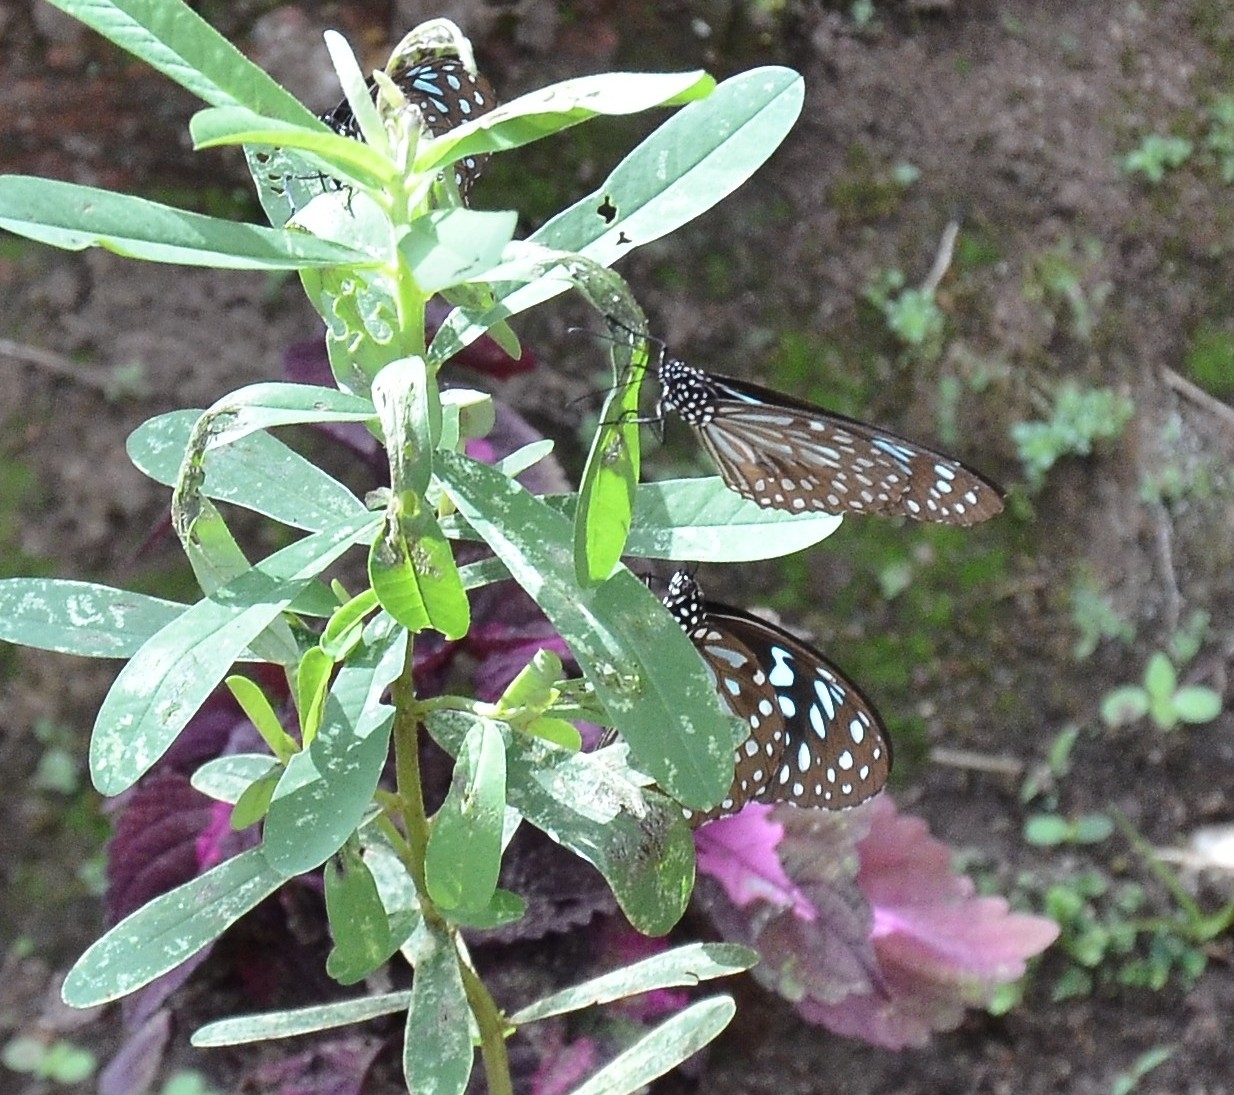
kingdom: Animalia
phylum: Arthropoda
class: Insecta
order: Lepidoptera
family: Nymphalidae
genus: Tirumala
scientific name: Tirumala septentrionis
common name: Dark blue tiger butterfly
